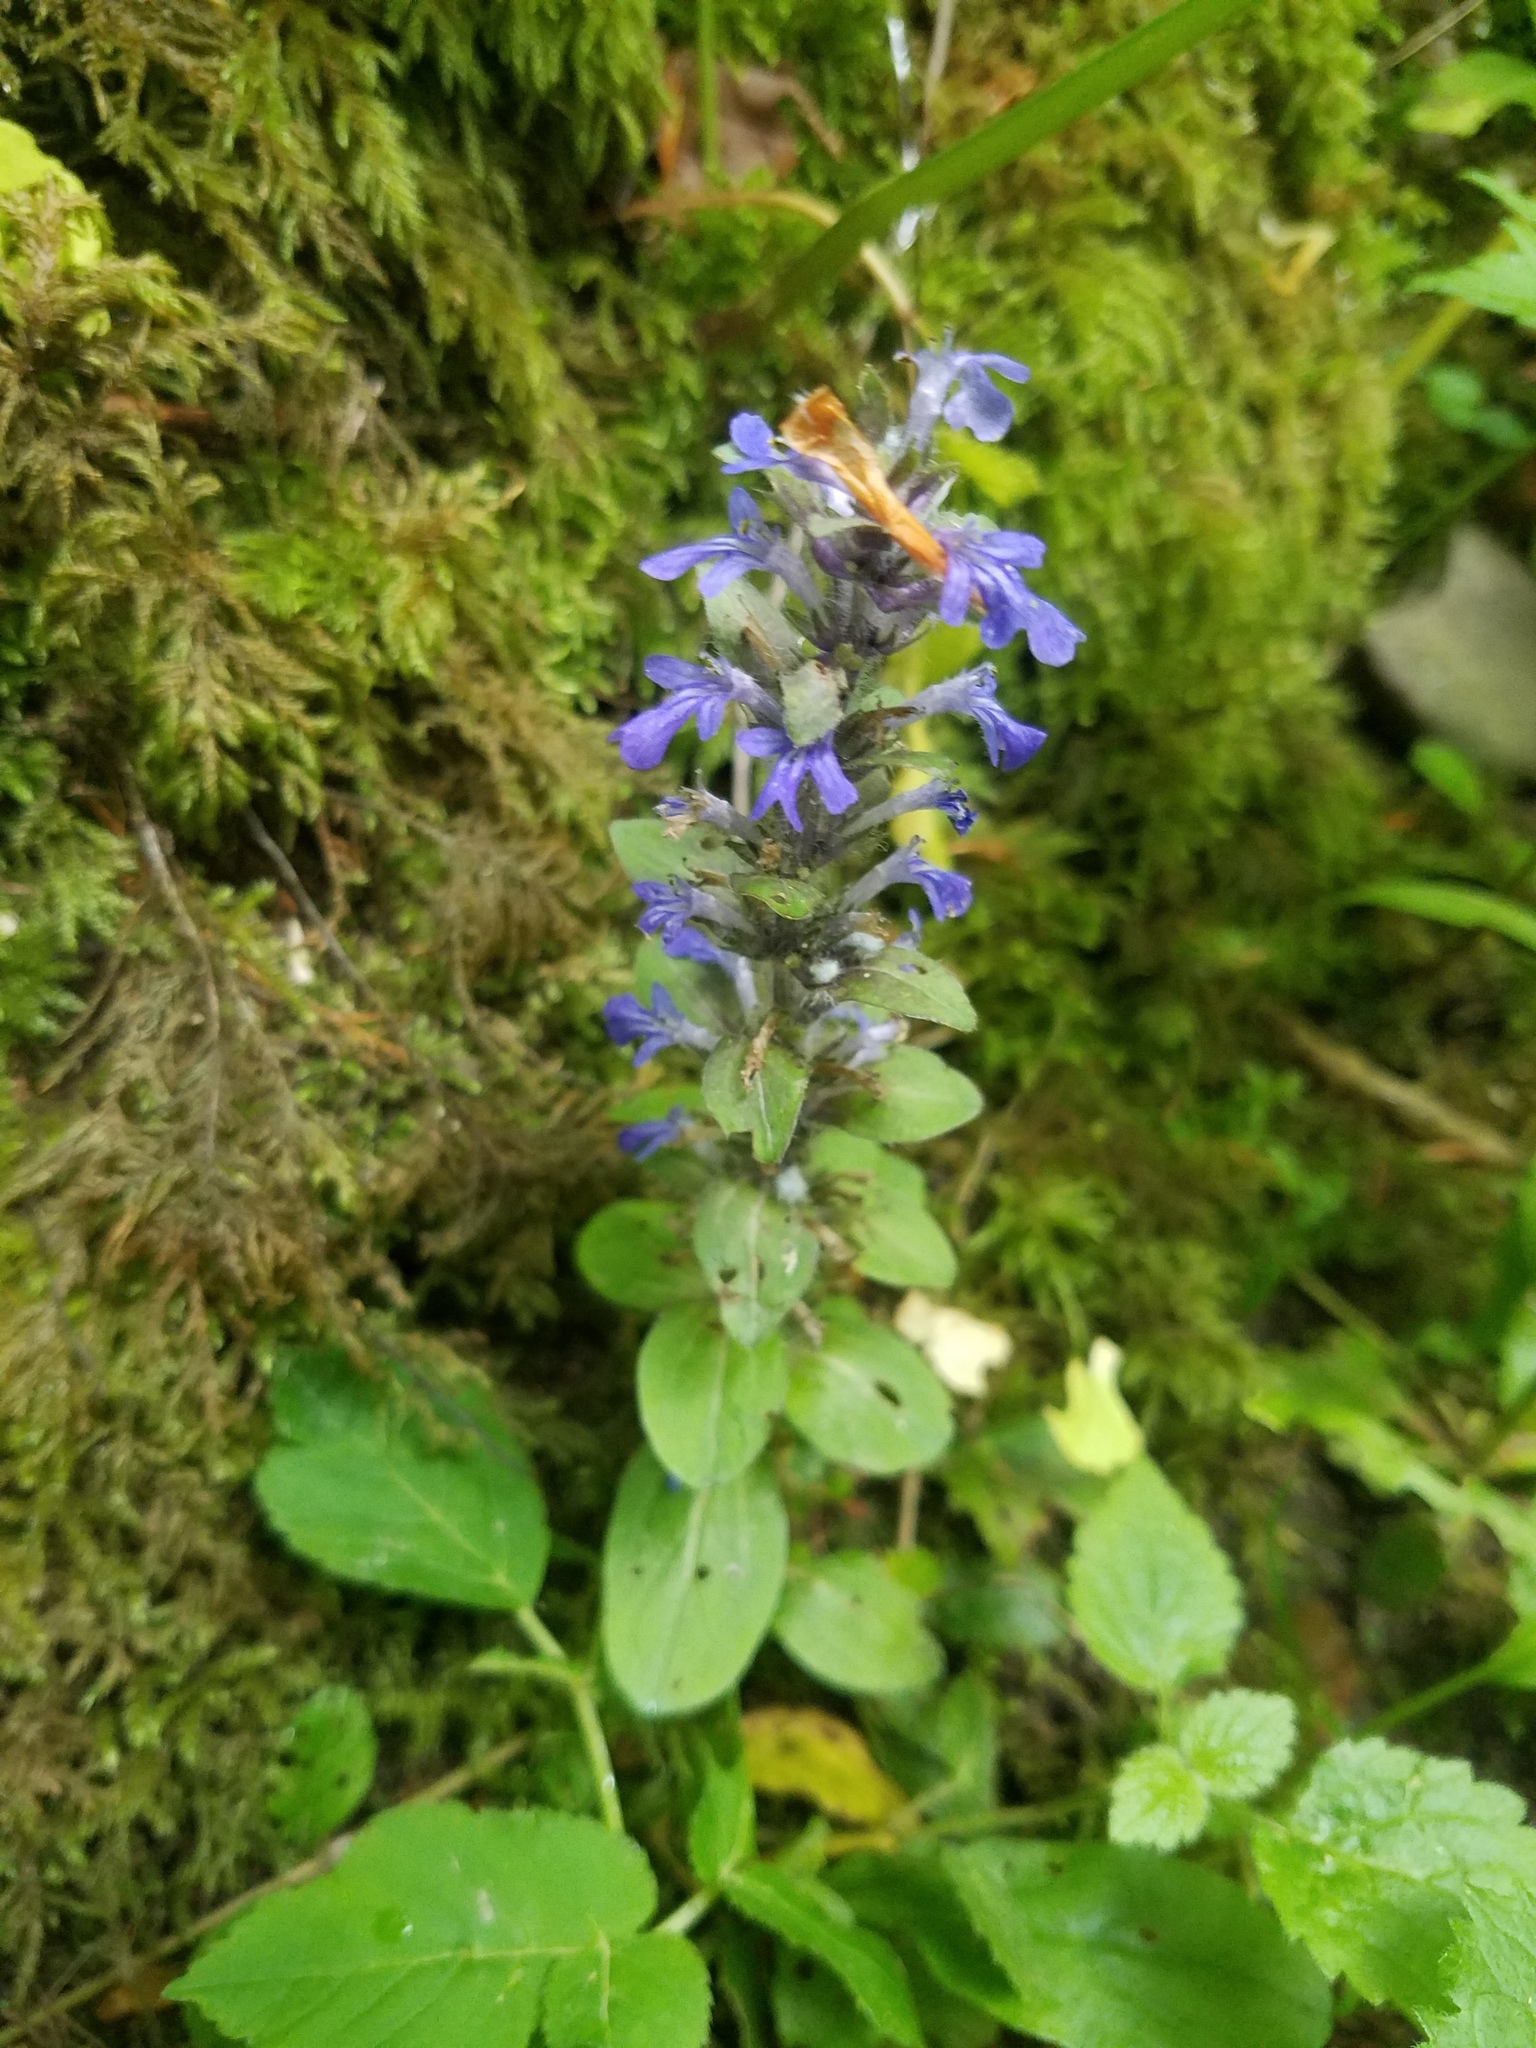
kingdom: Plantae
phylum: Tracheophyta
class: Magnoliopsida
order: Lamiales
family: Lamiaceae
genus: Ajuga
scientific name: Ajuga reptans
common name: Bugle
